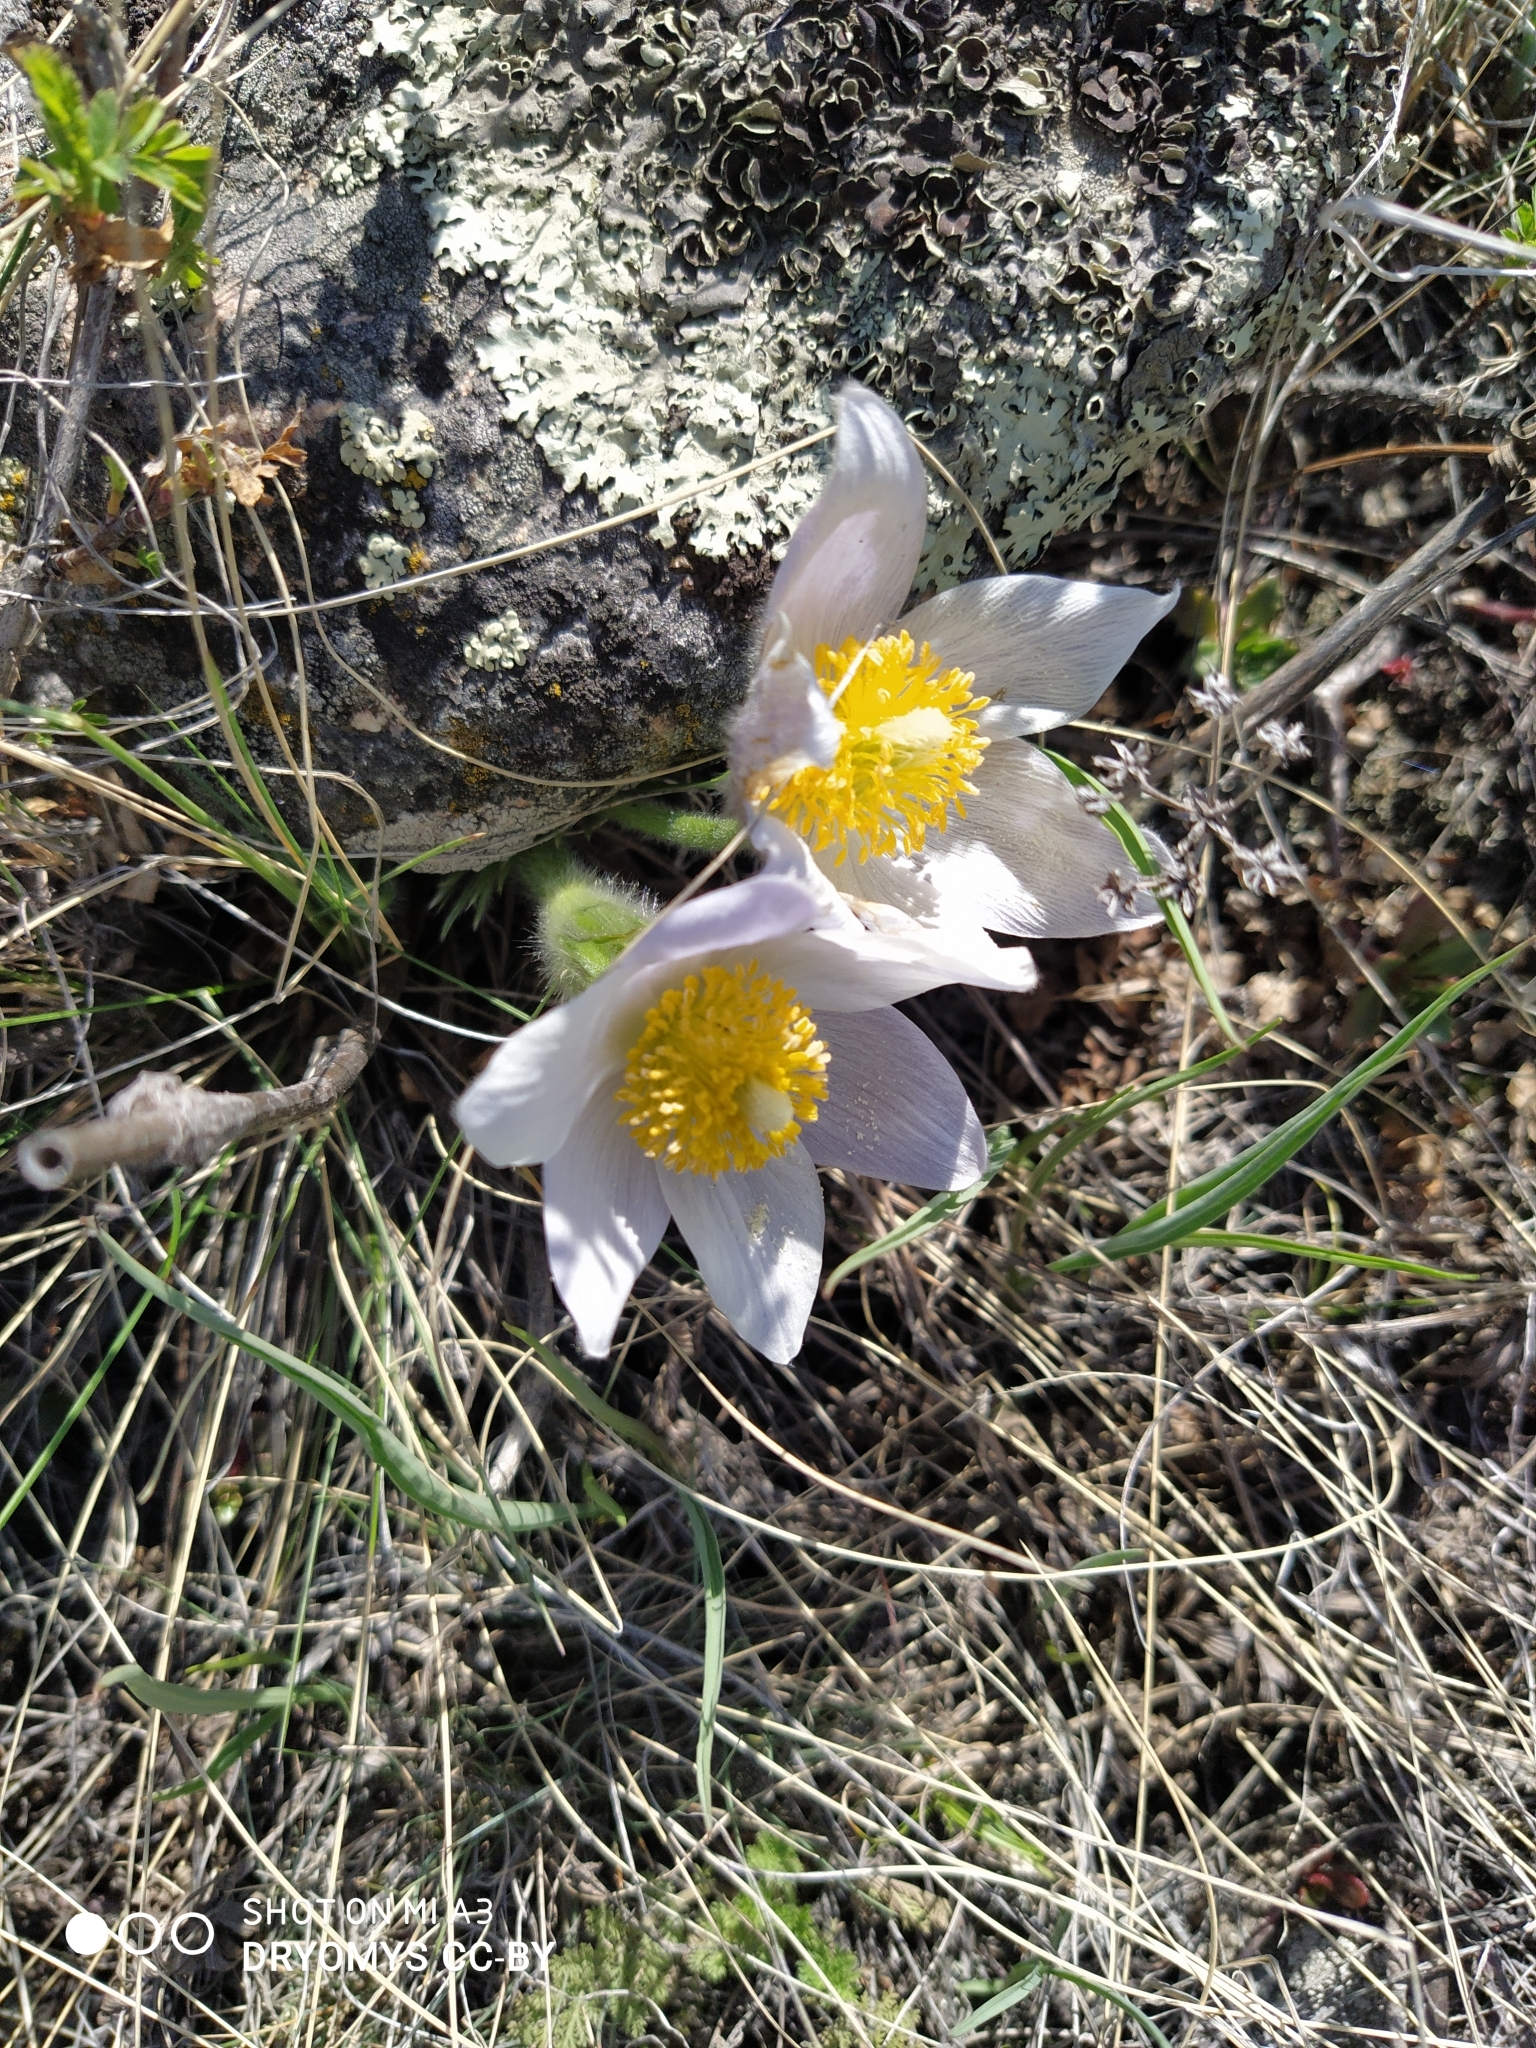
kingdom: Plantae
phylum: Tracheophyta
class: Magnoliopsida
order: Ranunculales
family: Ranunculaceae
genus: Pulsatilla
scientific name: Pulsatilla patens
